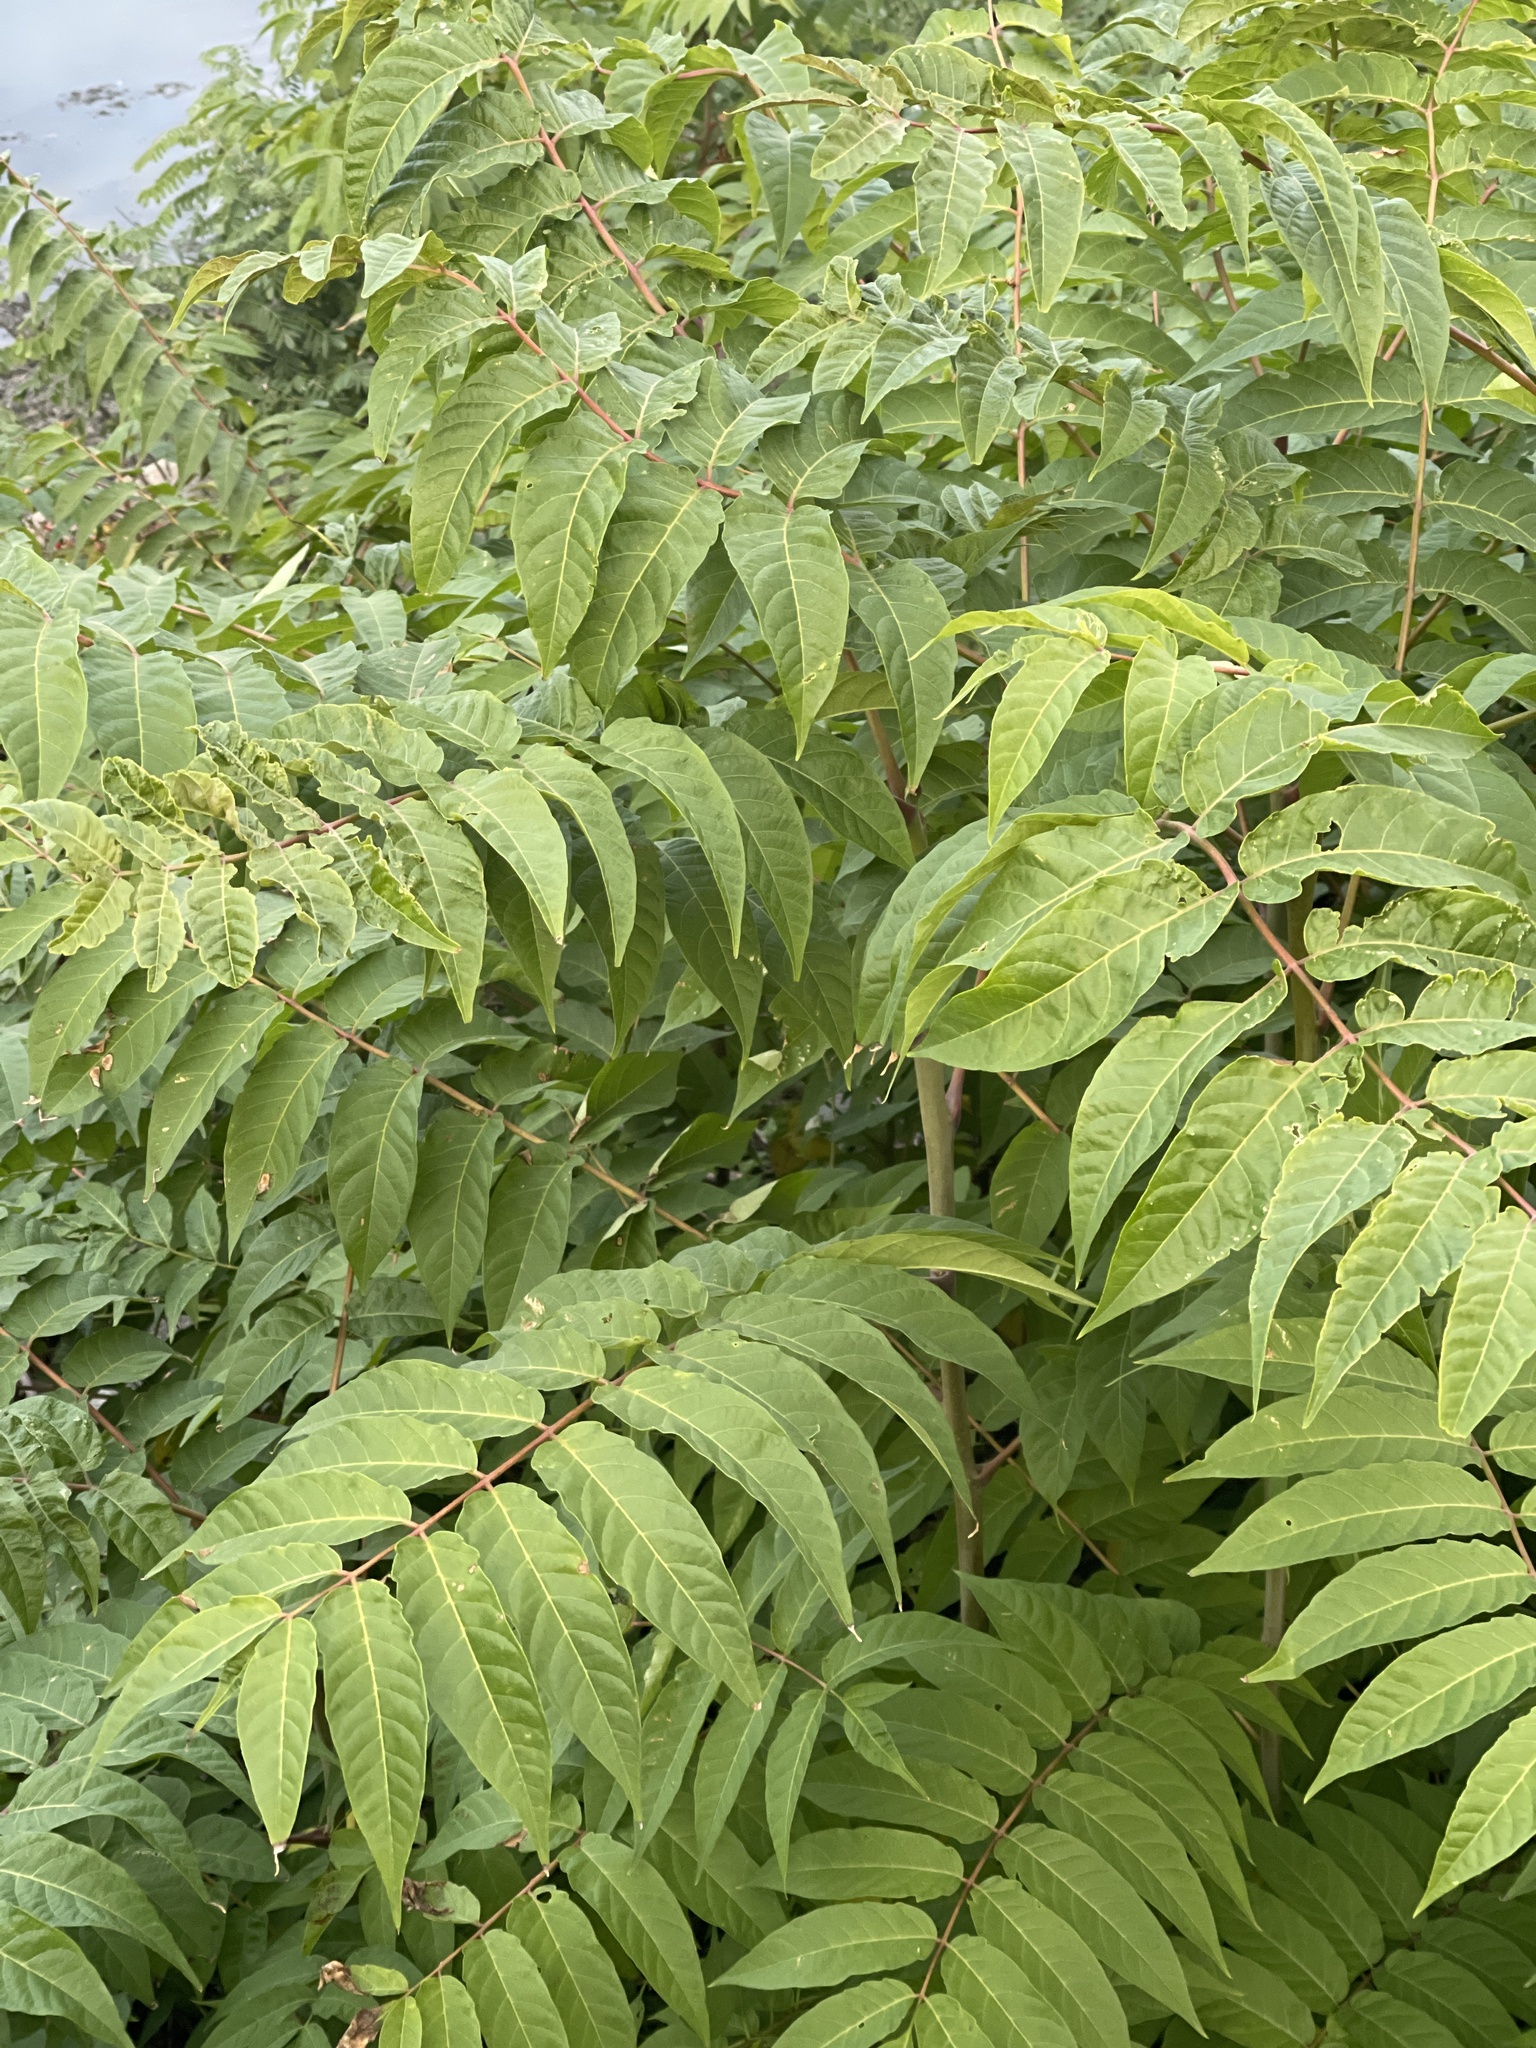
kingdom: Plantae
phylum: Tracheophyta
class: Magnoliopsida
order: Sapindales
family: Simaroubaceae
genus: Ailanthus
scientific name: Ailanthus altissima
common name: Tree-of-heaven
